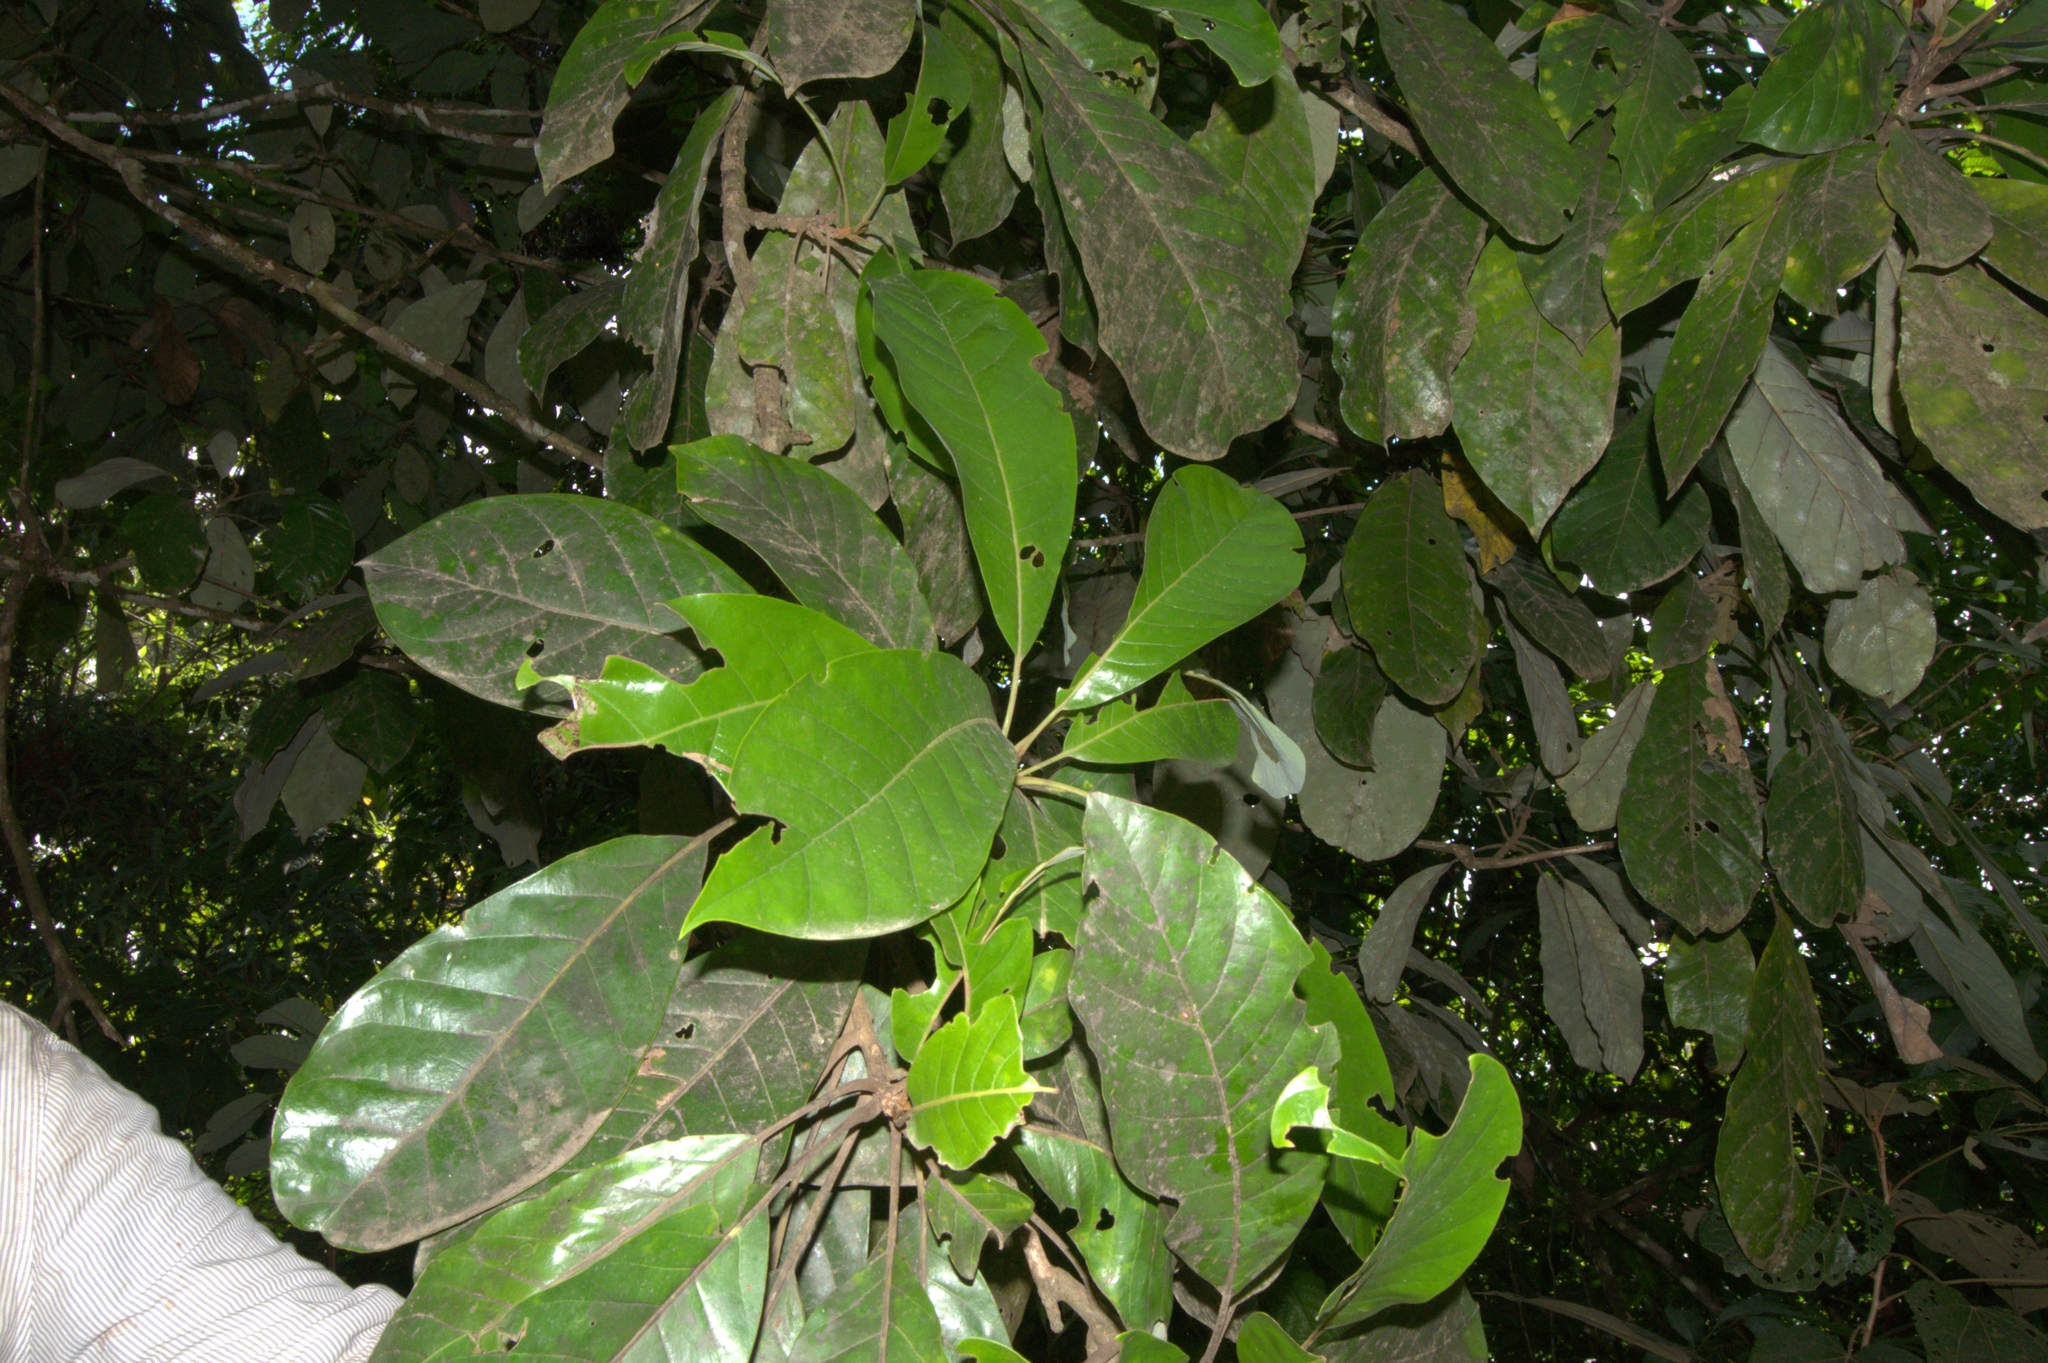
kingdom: Plantae
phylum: Tracheophyta
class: Magnoliopsida
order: Laurales
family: Lauraceae
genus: Williamodendron
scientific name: Williamodendron glaucophyllum
